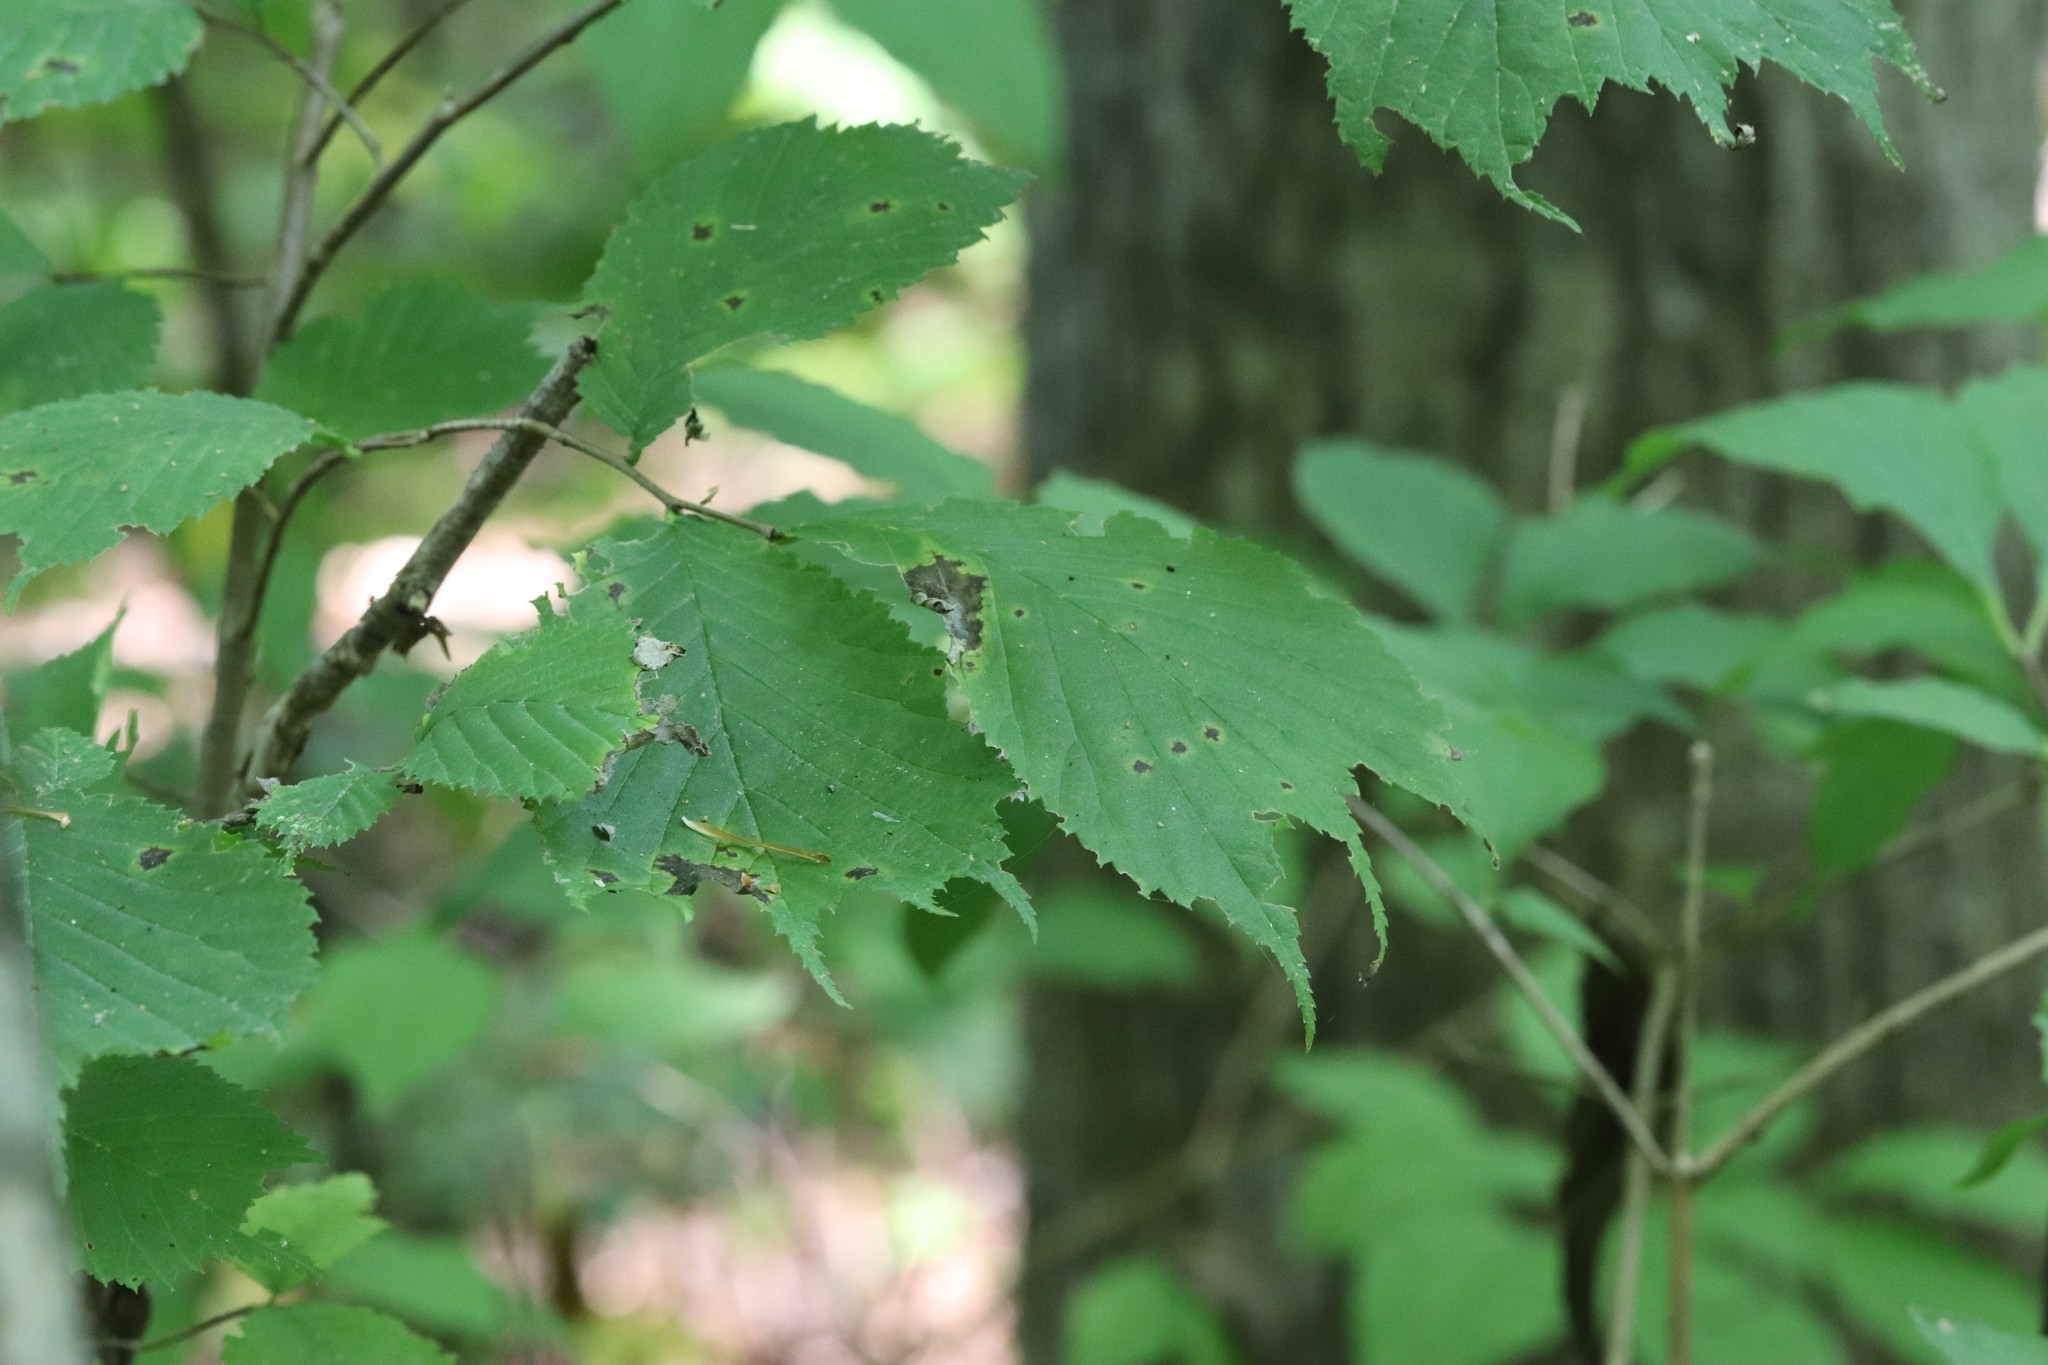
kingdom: Plantae
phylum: Tracheophyta
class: Magnoliopsida
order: Rosales
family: Ulmaceae
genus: Ulmus
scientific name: Ulmus laciniata
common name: Japanese elm
